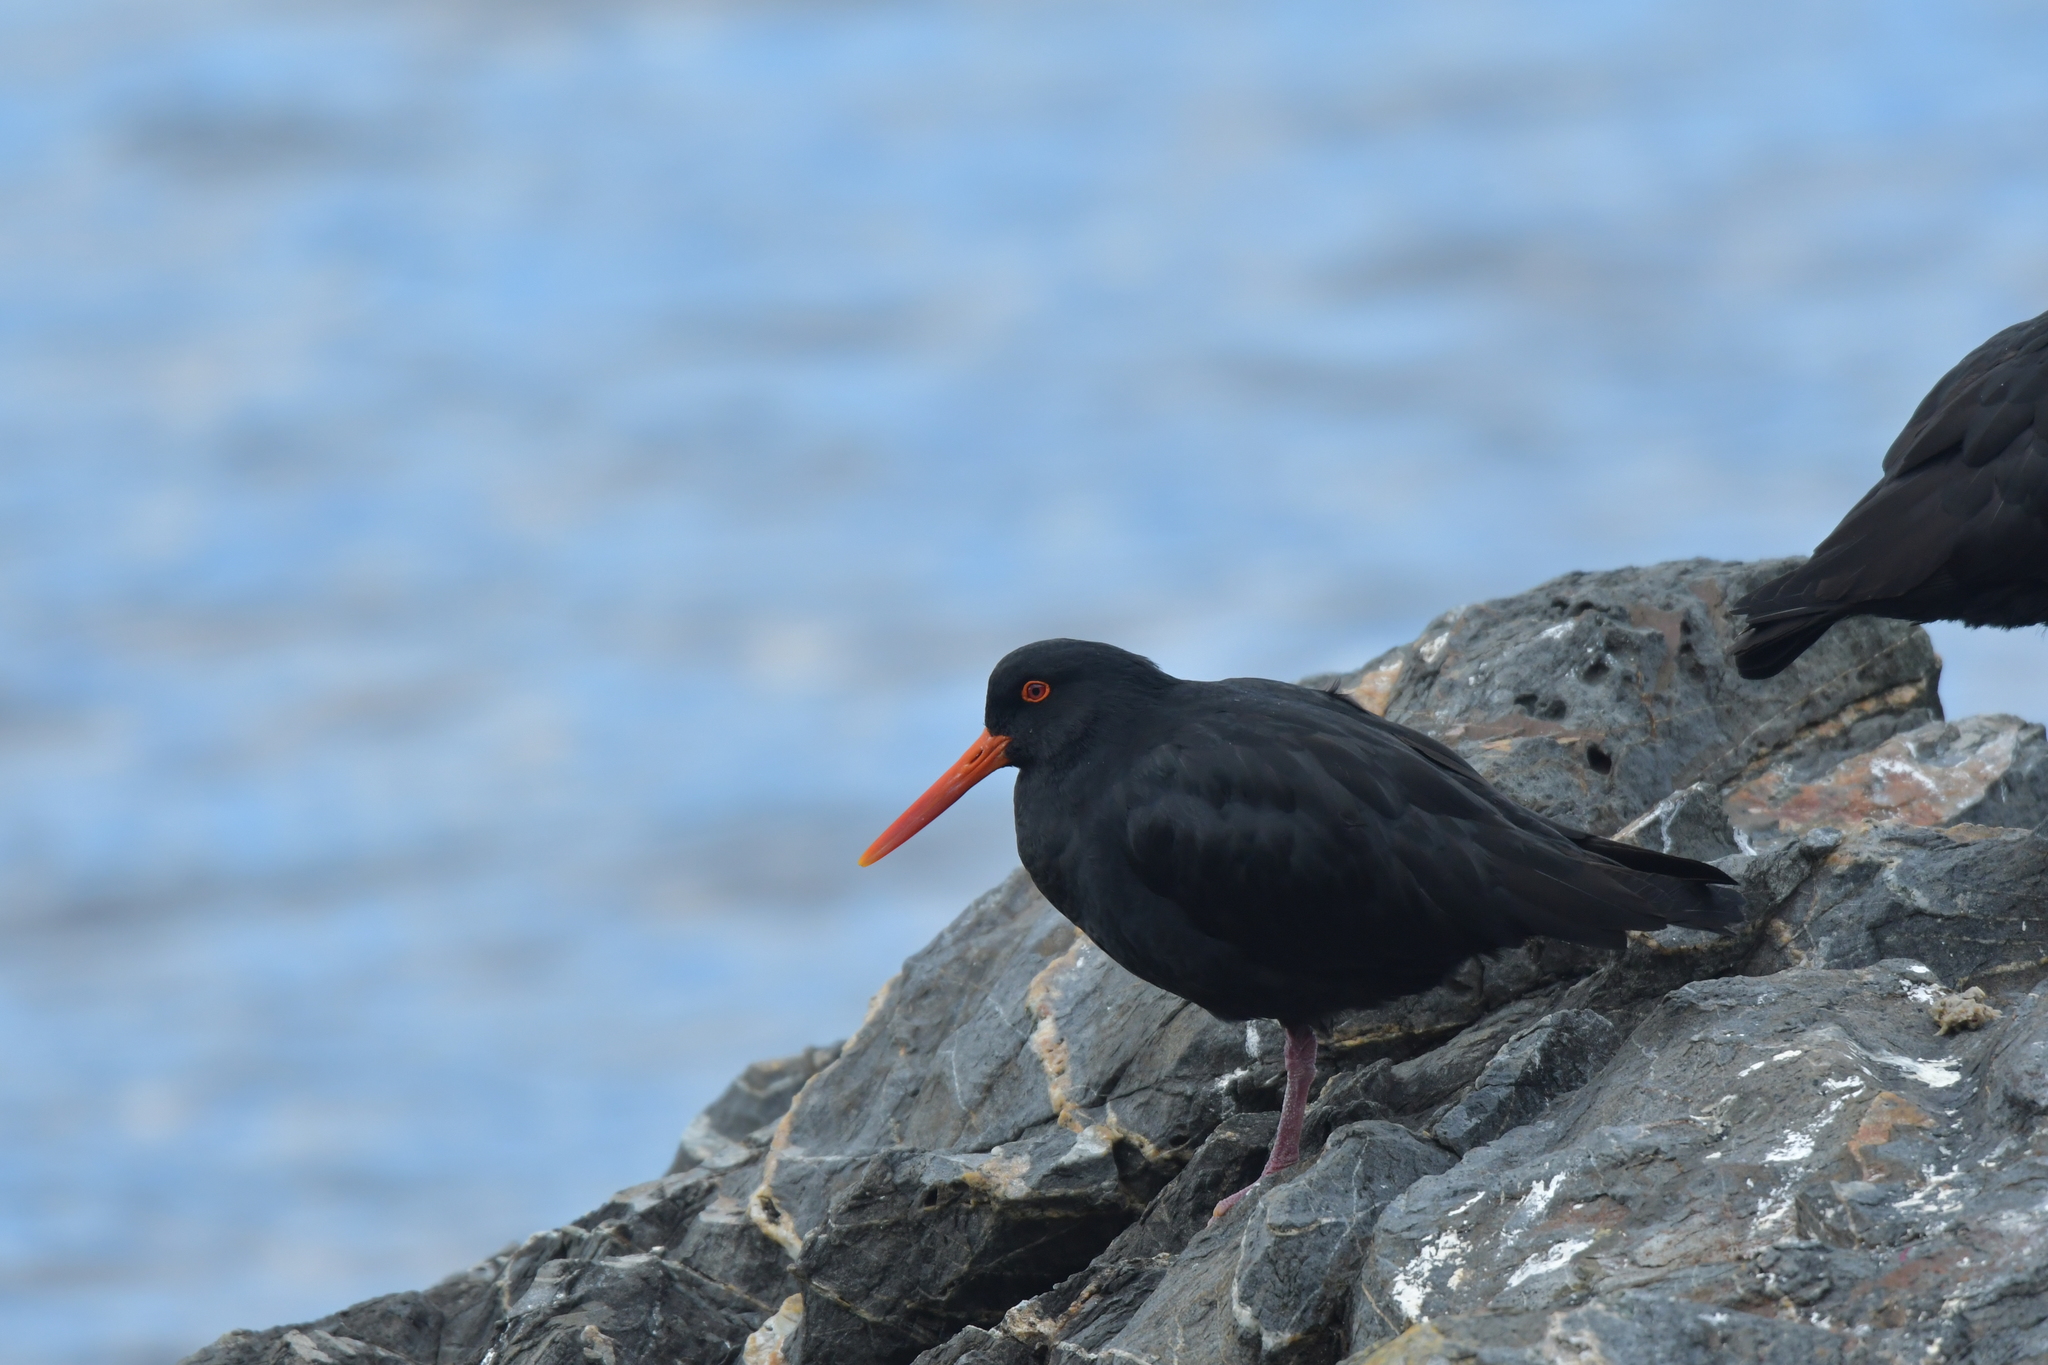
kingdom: Animalia
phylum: Chordata
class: Aves
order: Charadriiformes
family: Haematopodidae
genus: Haematopus
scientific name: Haematopus unicolor
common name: Variable oystercatcher
